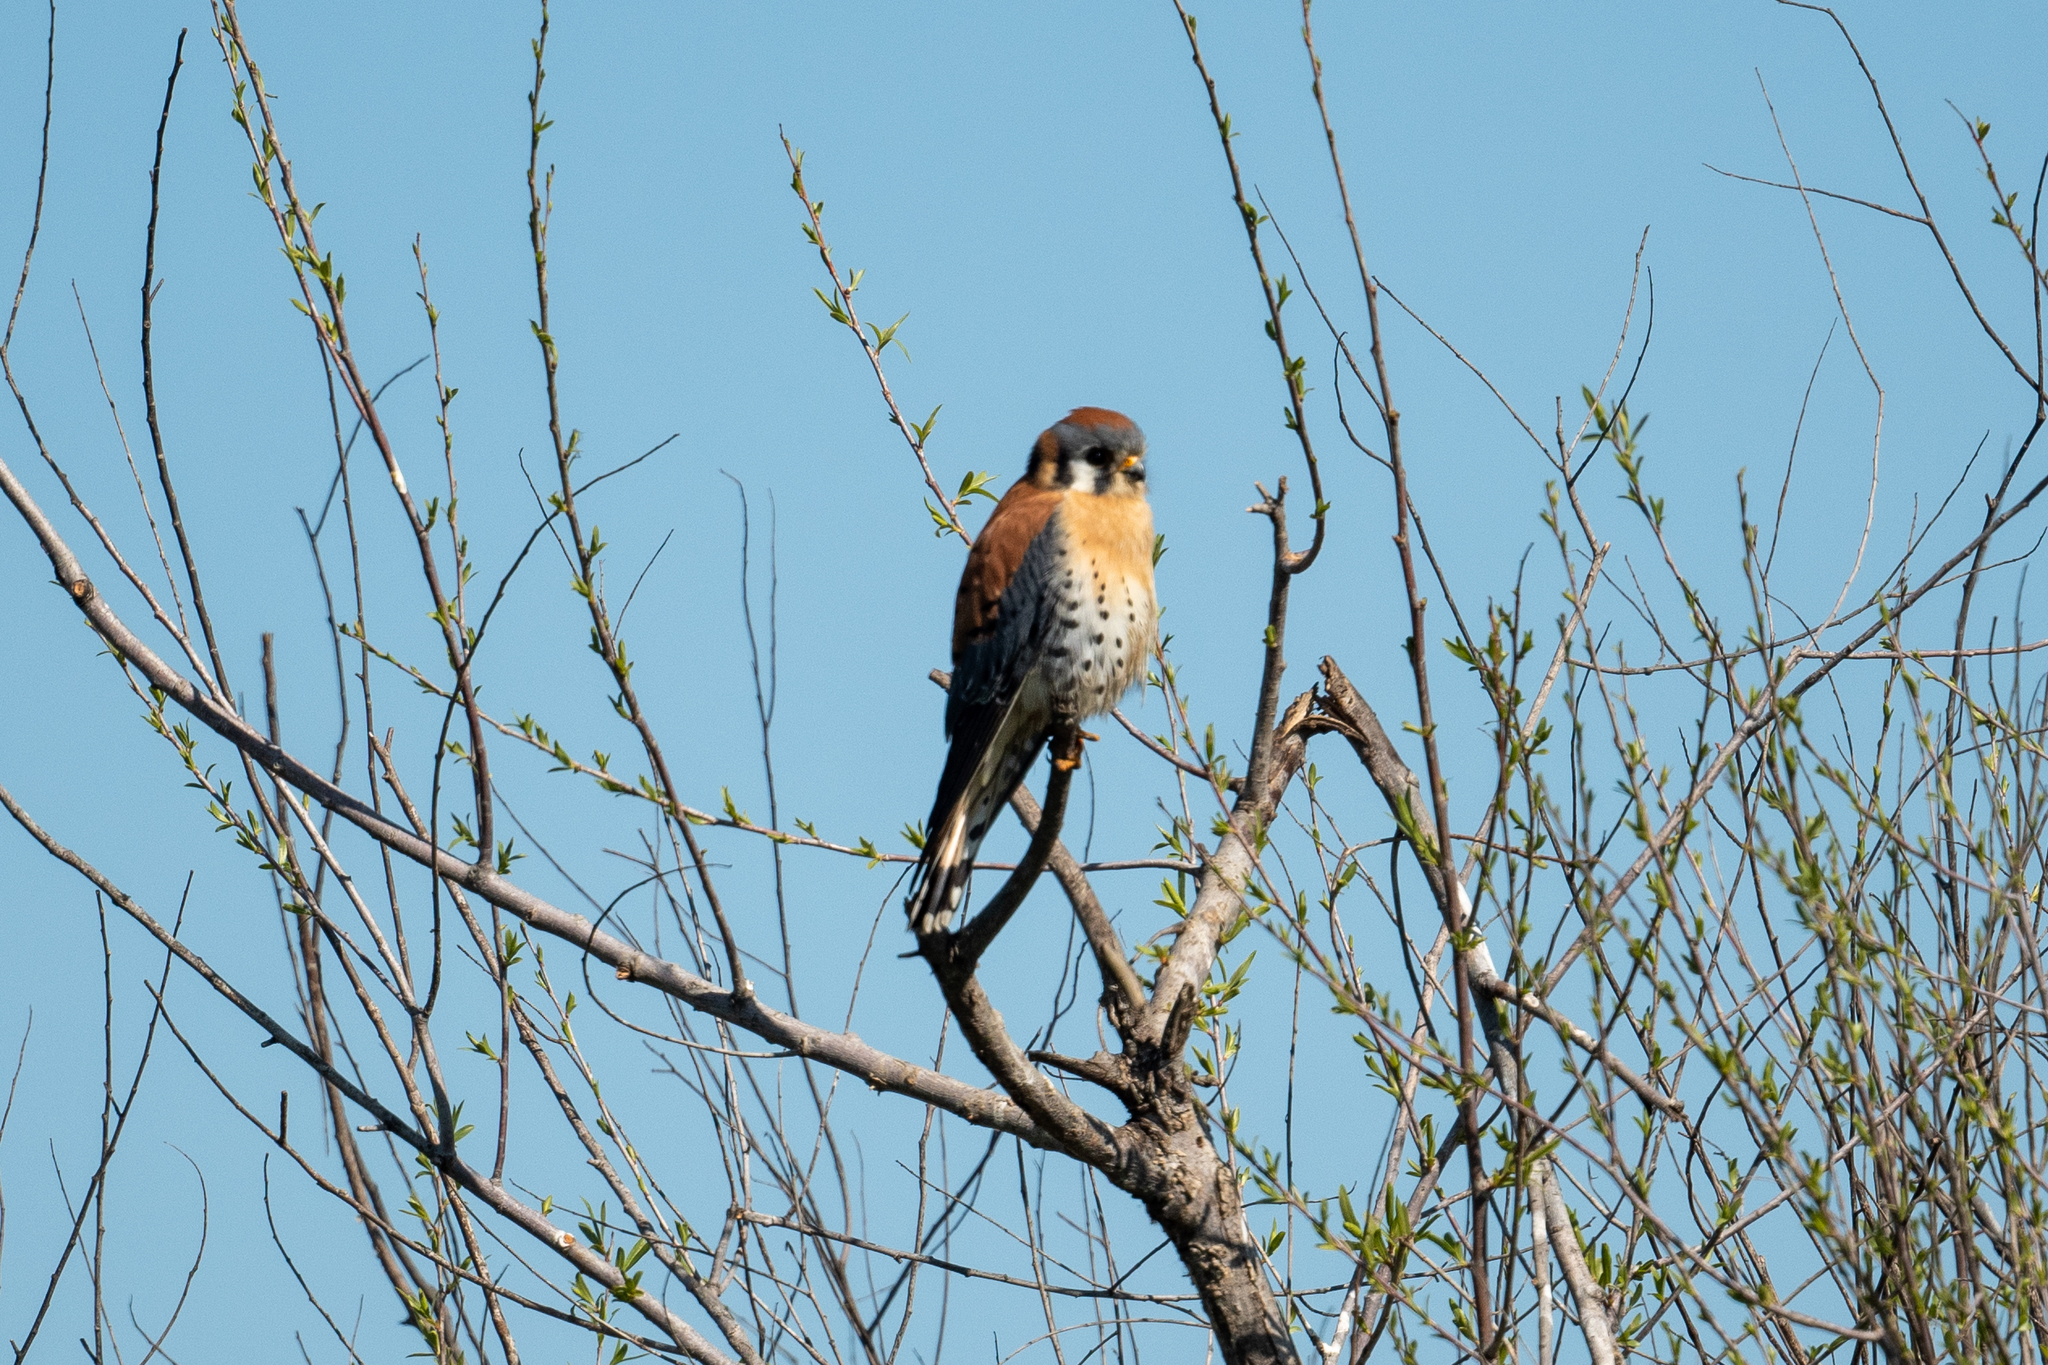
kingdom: Animalia
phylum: Chordata
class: Aves
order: Falconiformes
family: Falconidae
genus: Falco
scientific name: Falco sparverius
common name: American kestrel
